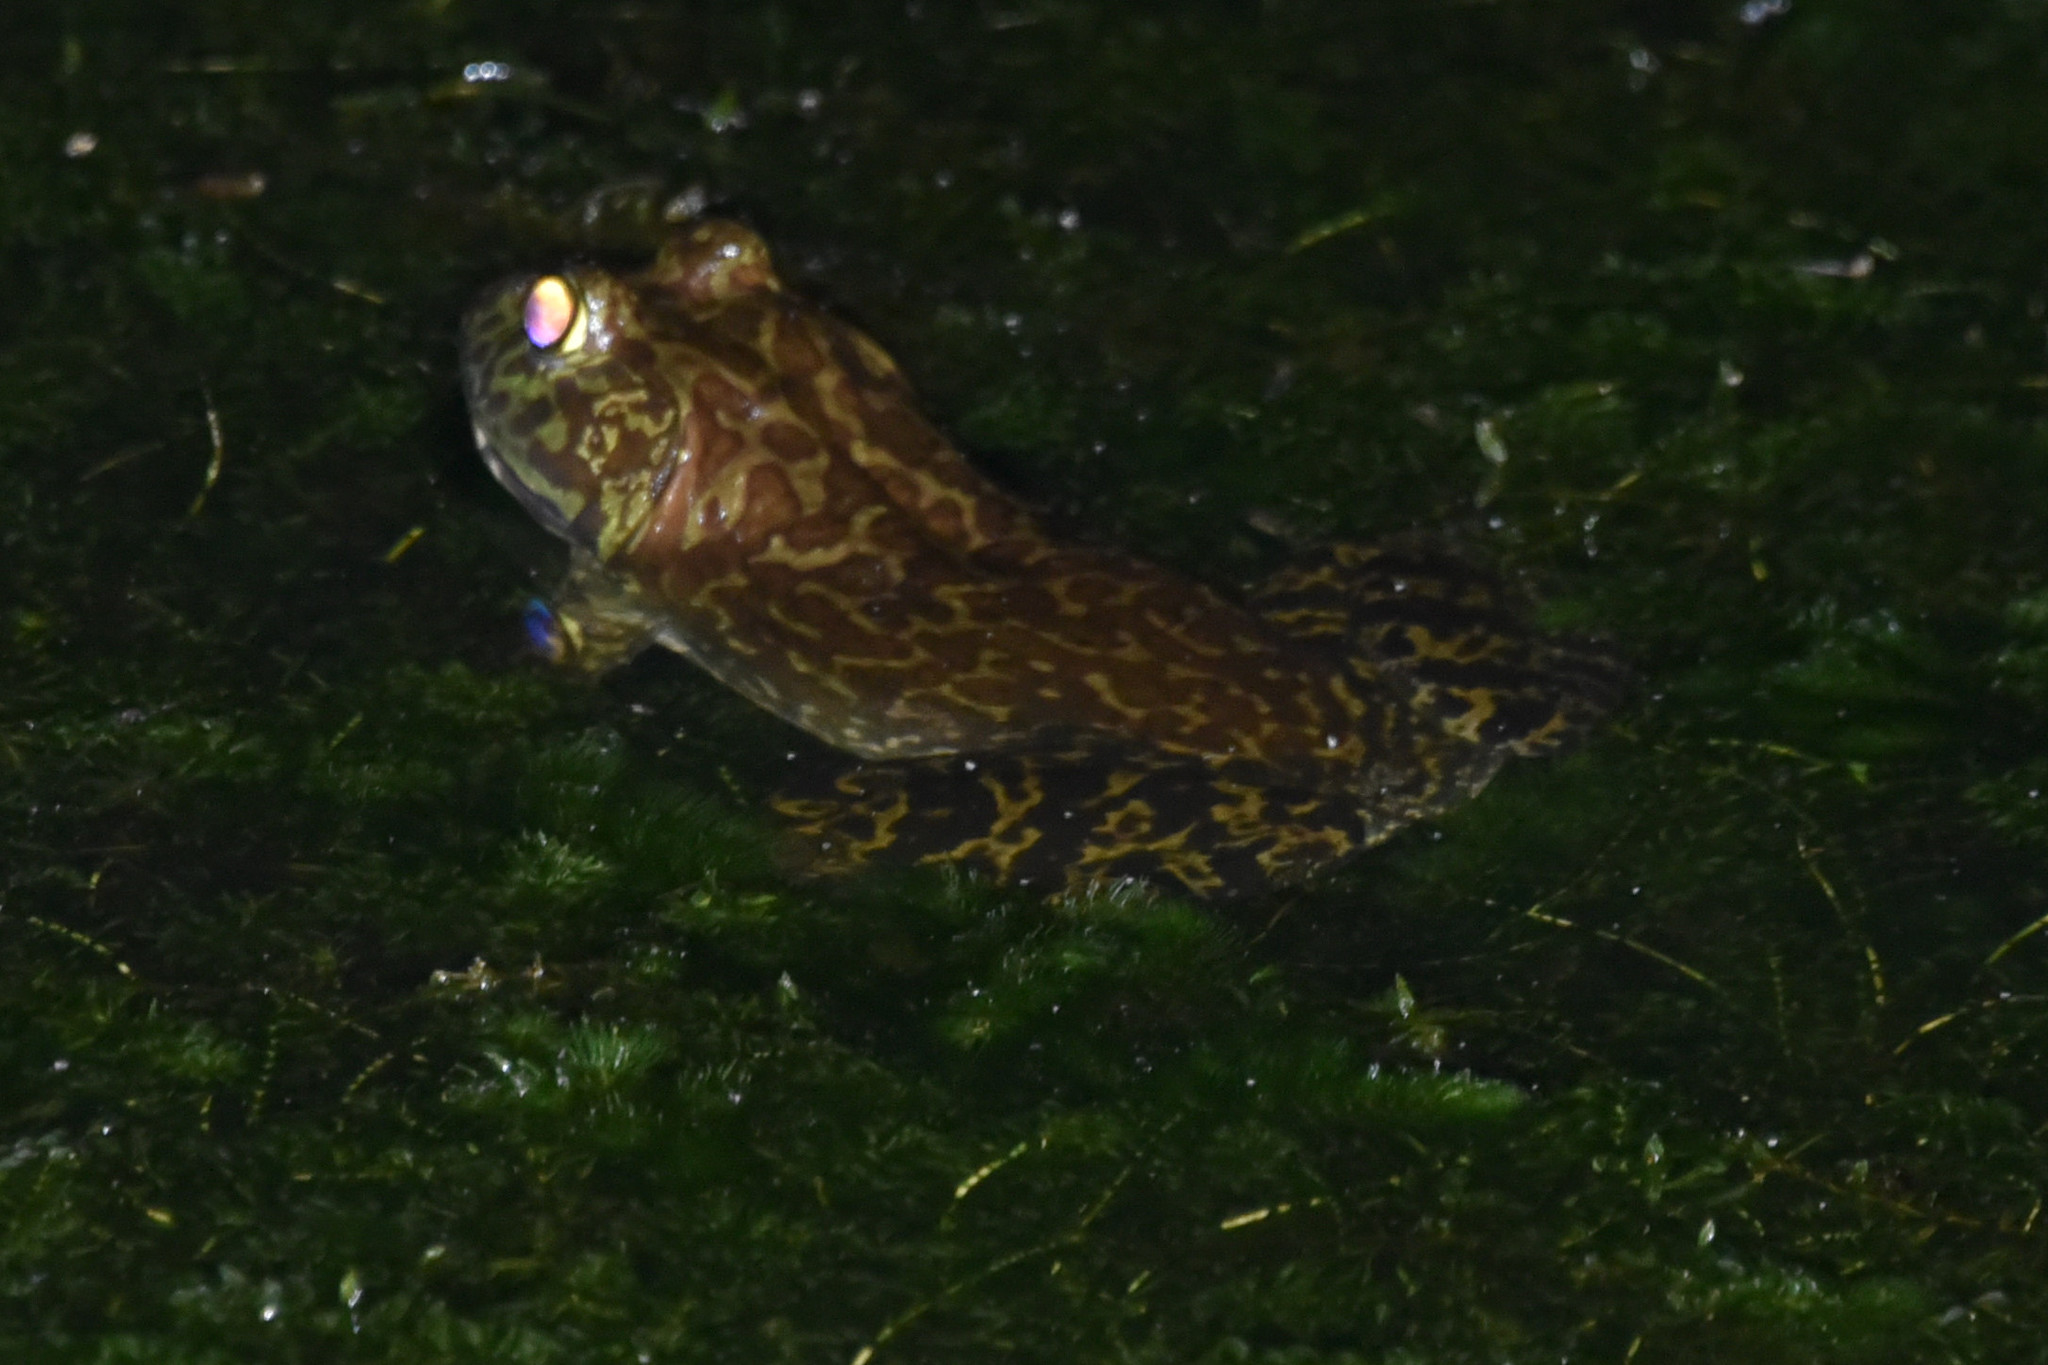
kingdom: Animalia
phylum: Chordata
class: Amphibia
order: Anura
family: Ranidae
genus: Lithobates
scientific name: Lithobates catesbeianus
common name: American bullfrog
